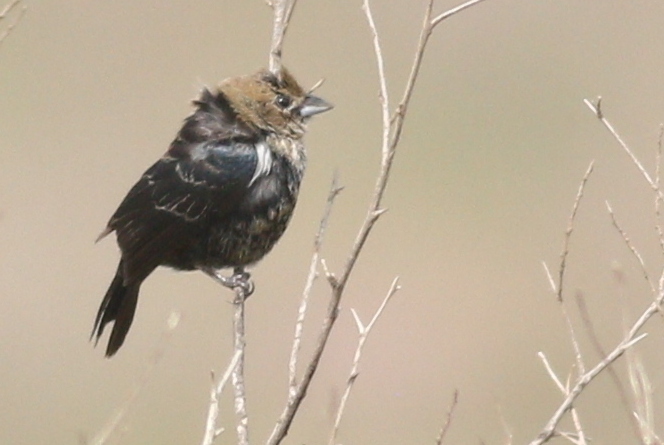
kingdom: Animalia
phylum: Chordata
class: Aves
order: Passeriformes
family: Thraupidae
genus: Volatinia
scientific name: Volatinia jacarina
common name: Blue-black grassquit
